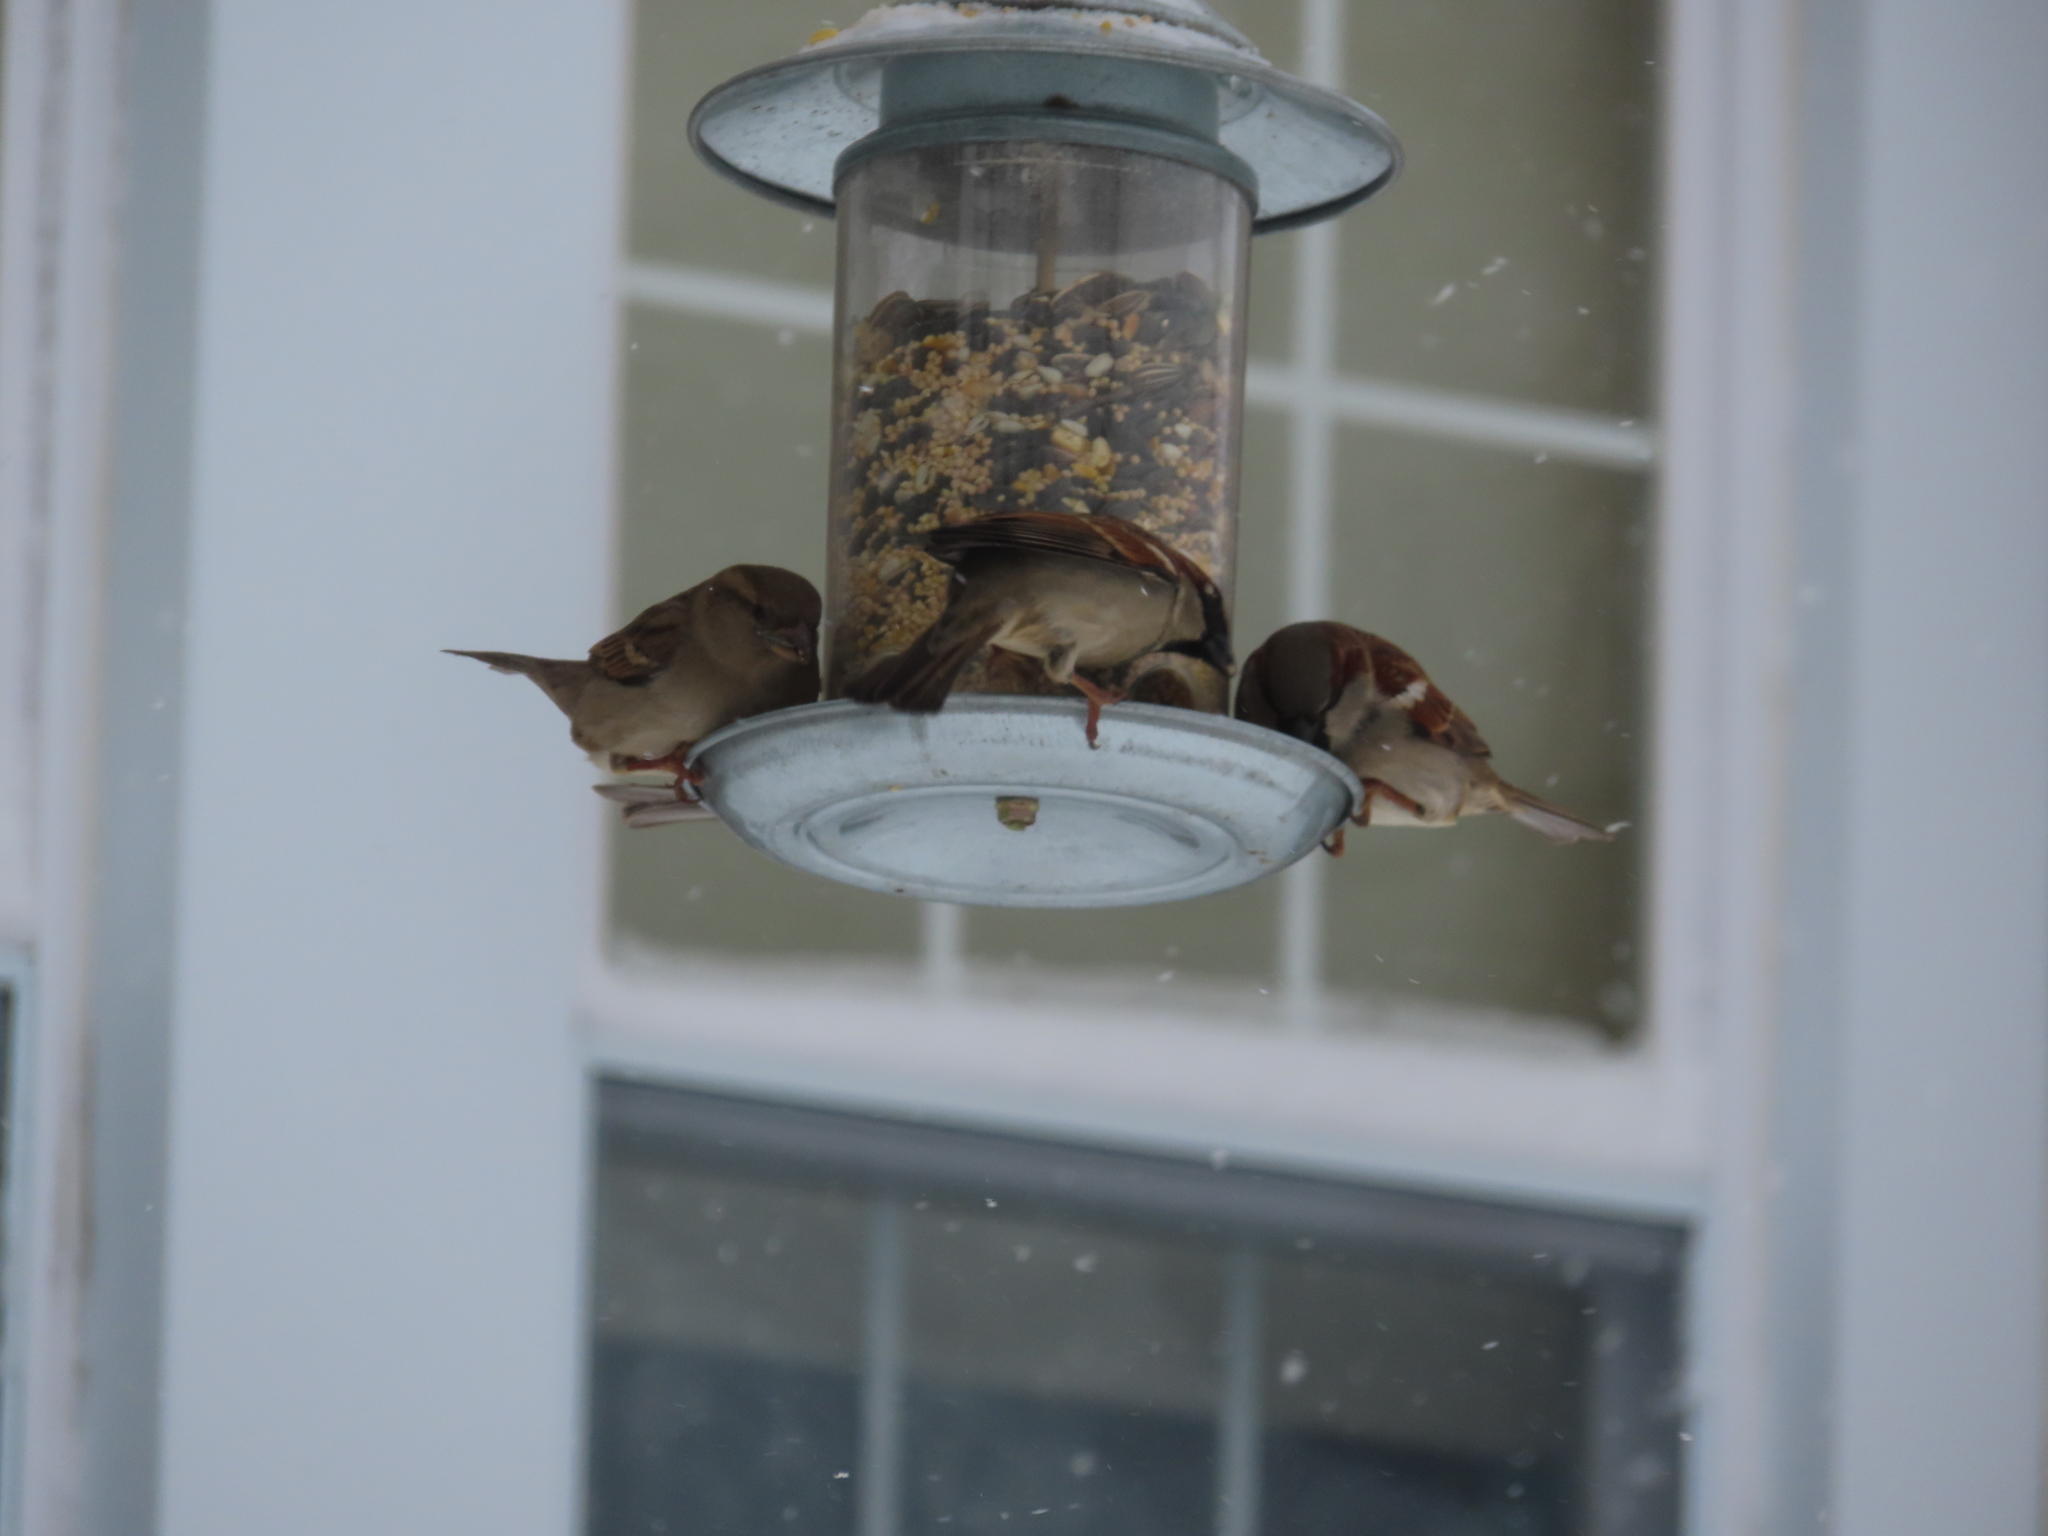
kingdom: Animalia
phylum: Chordata
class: Aves
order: Passeriformes
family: Passeridae
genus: Passer
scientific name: Passer domesticus
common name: House sparrow
